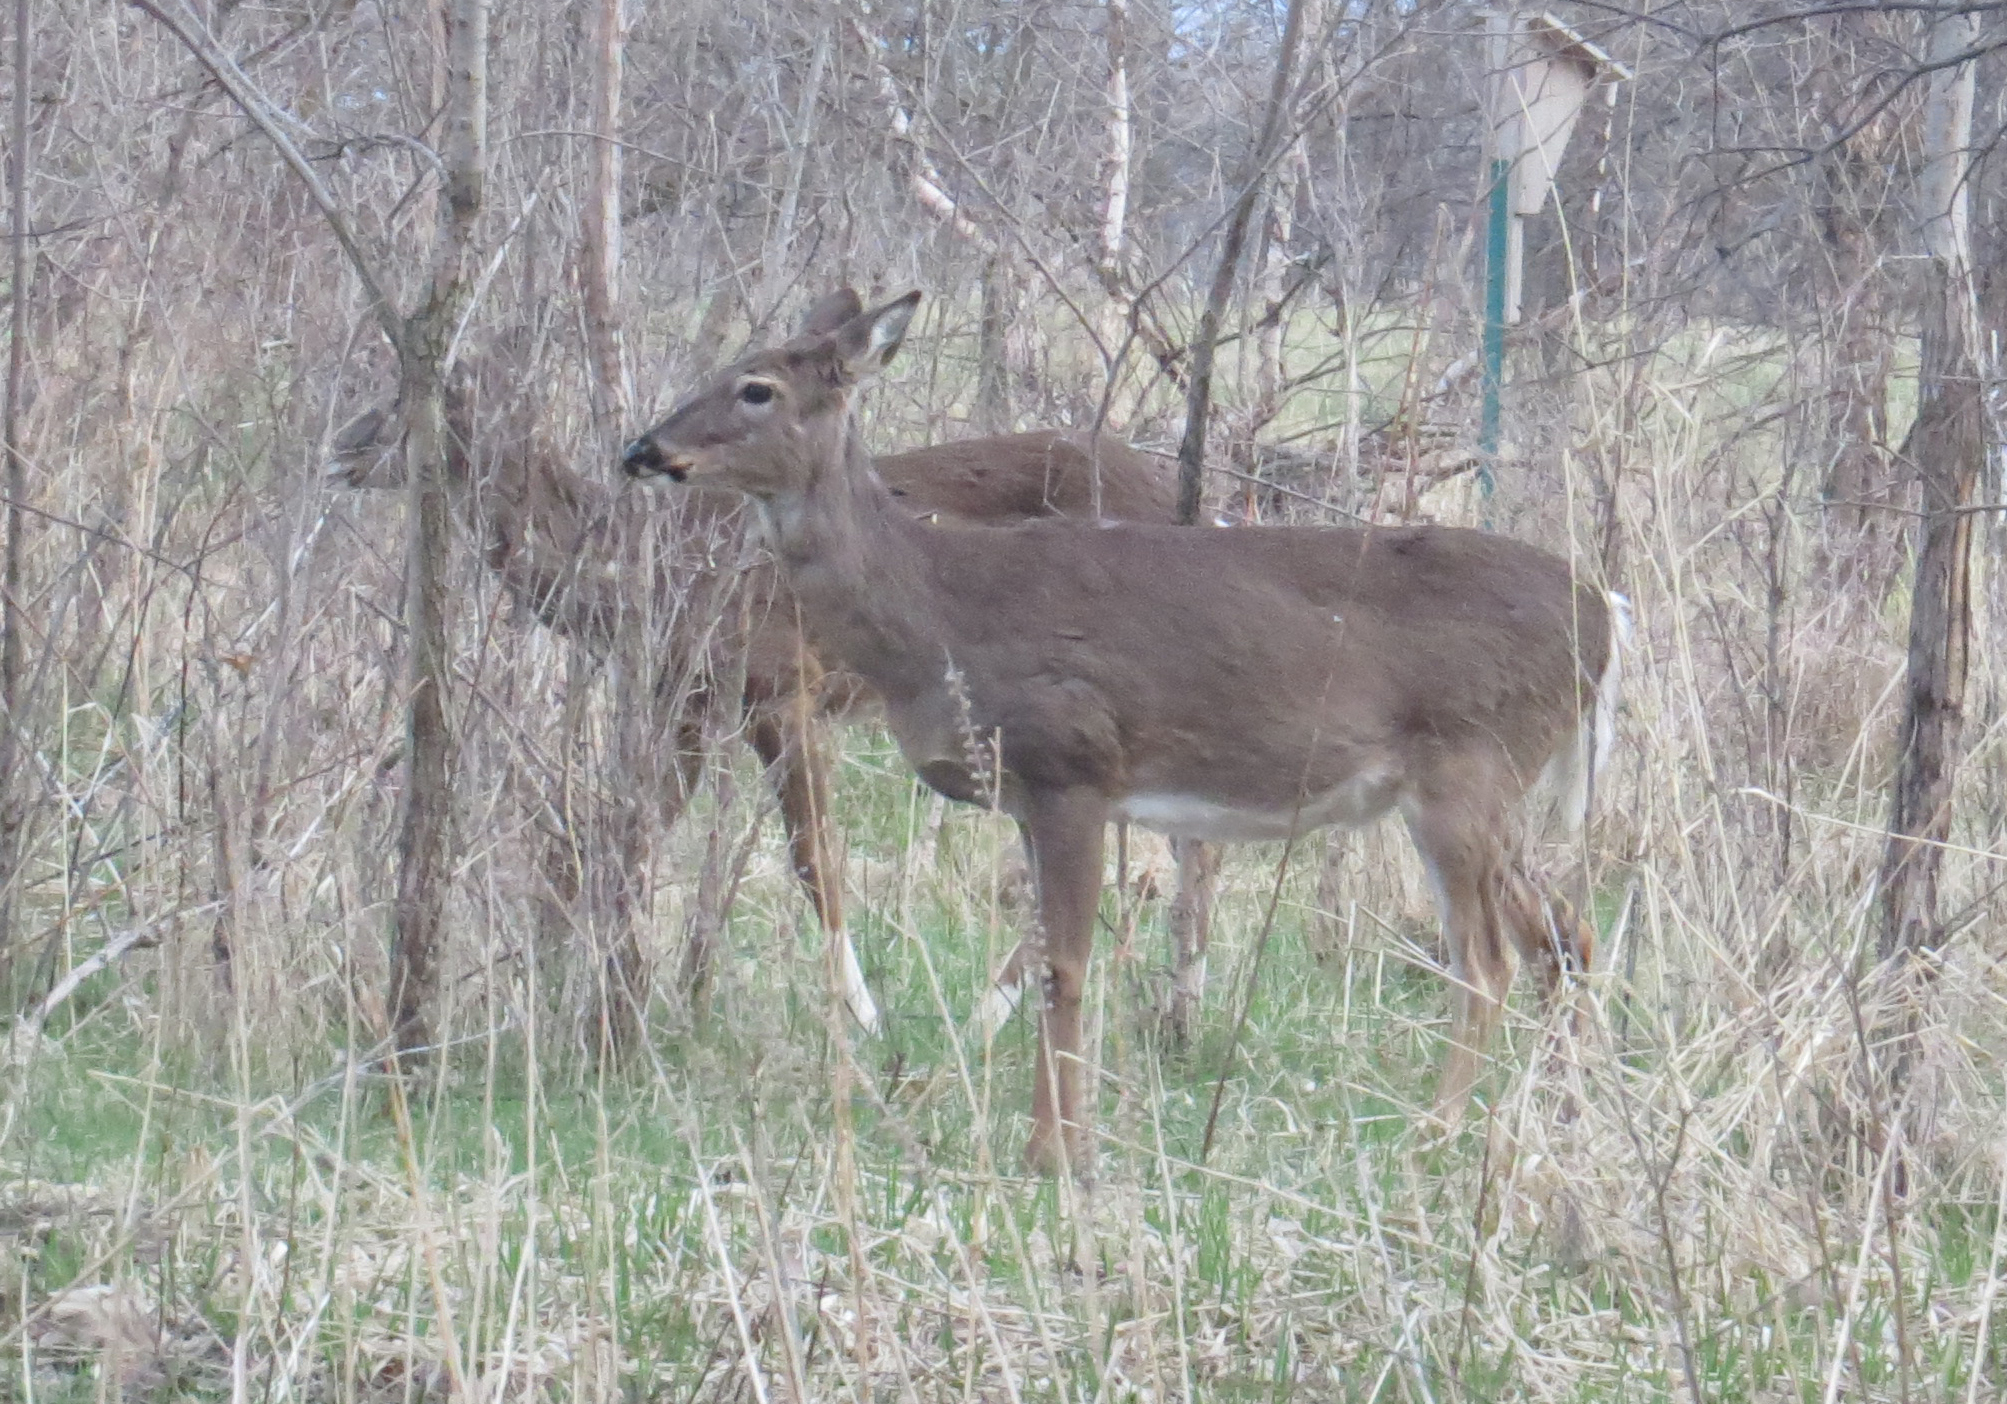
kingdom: Animalia
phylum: Chordata
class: Mammalia
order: Artiodactyla
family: Cervidae
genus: Odocoileus
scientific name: Odocoileus virginianus
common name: White-tailed deer
